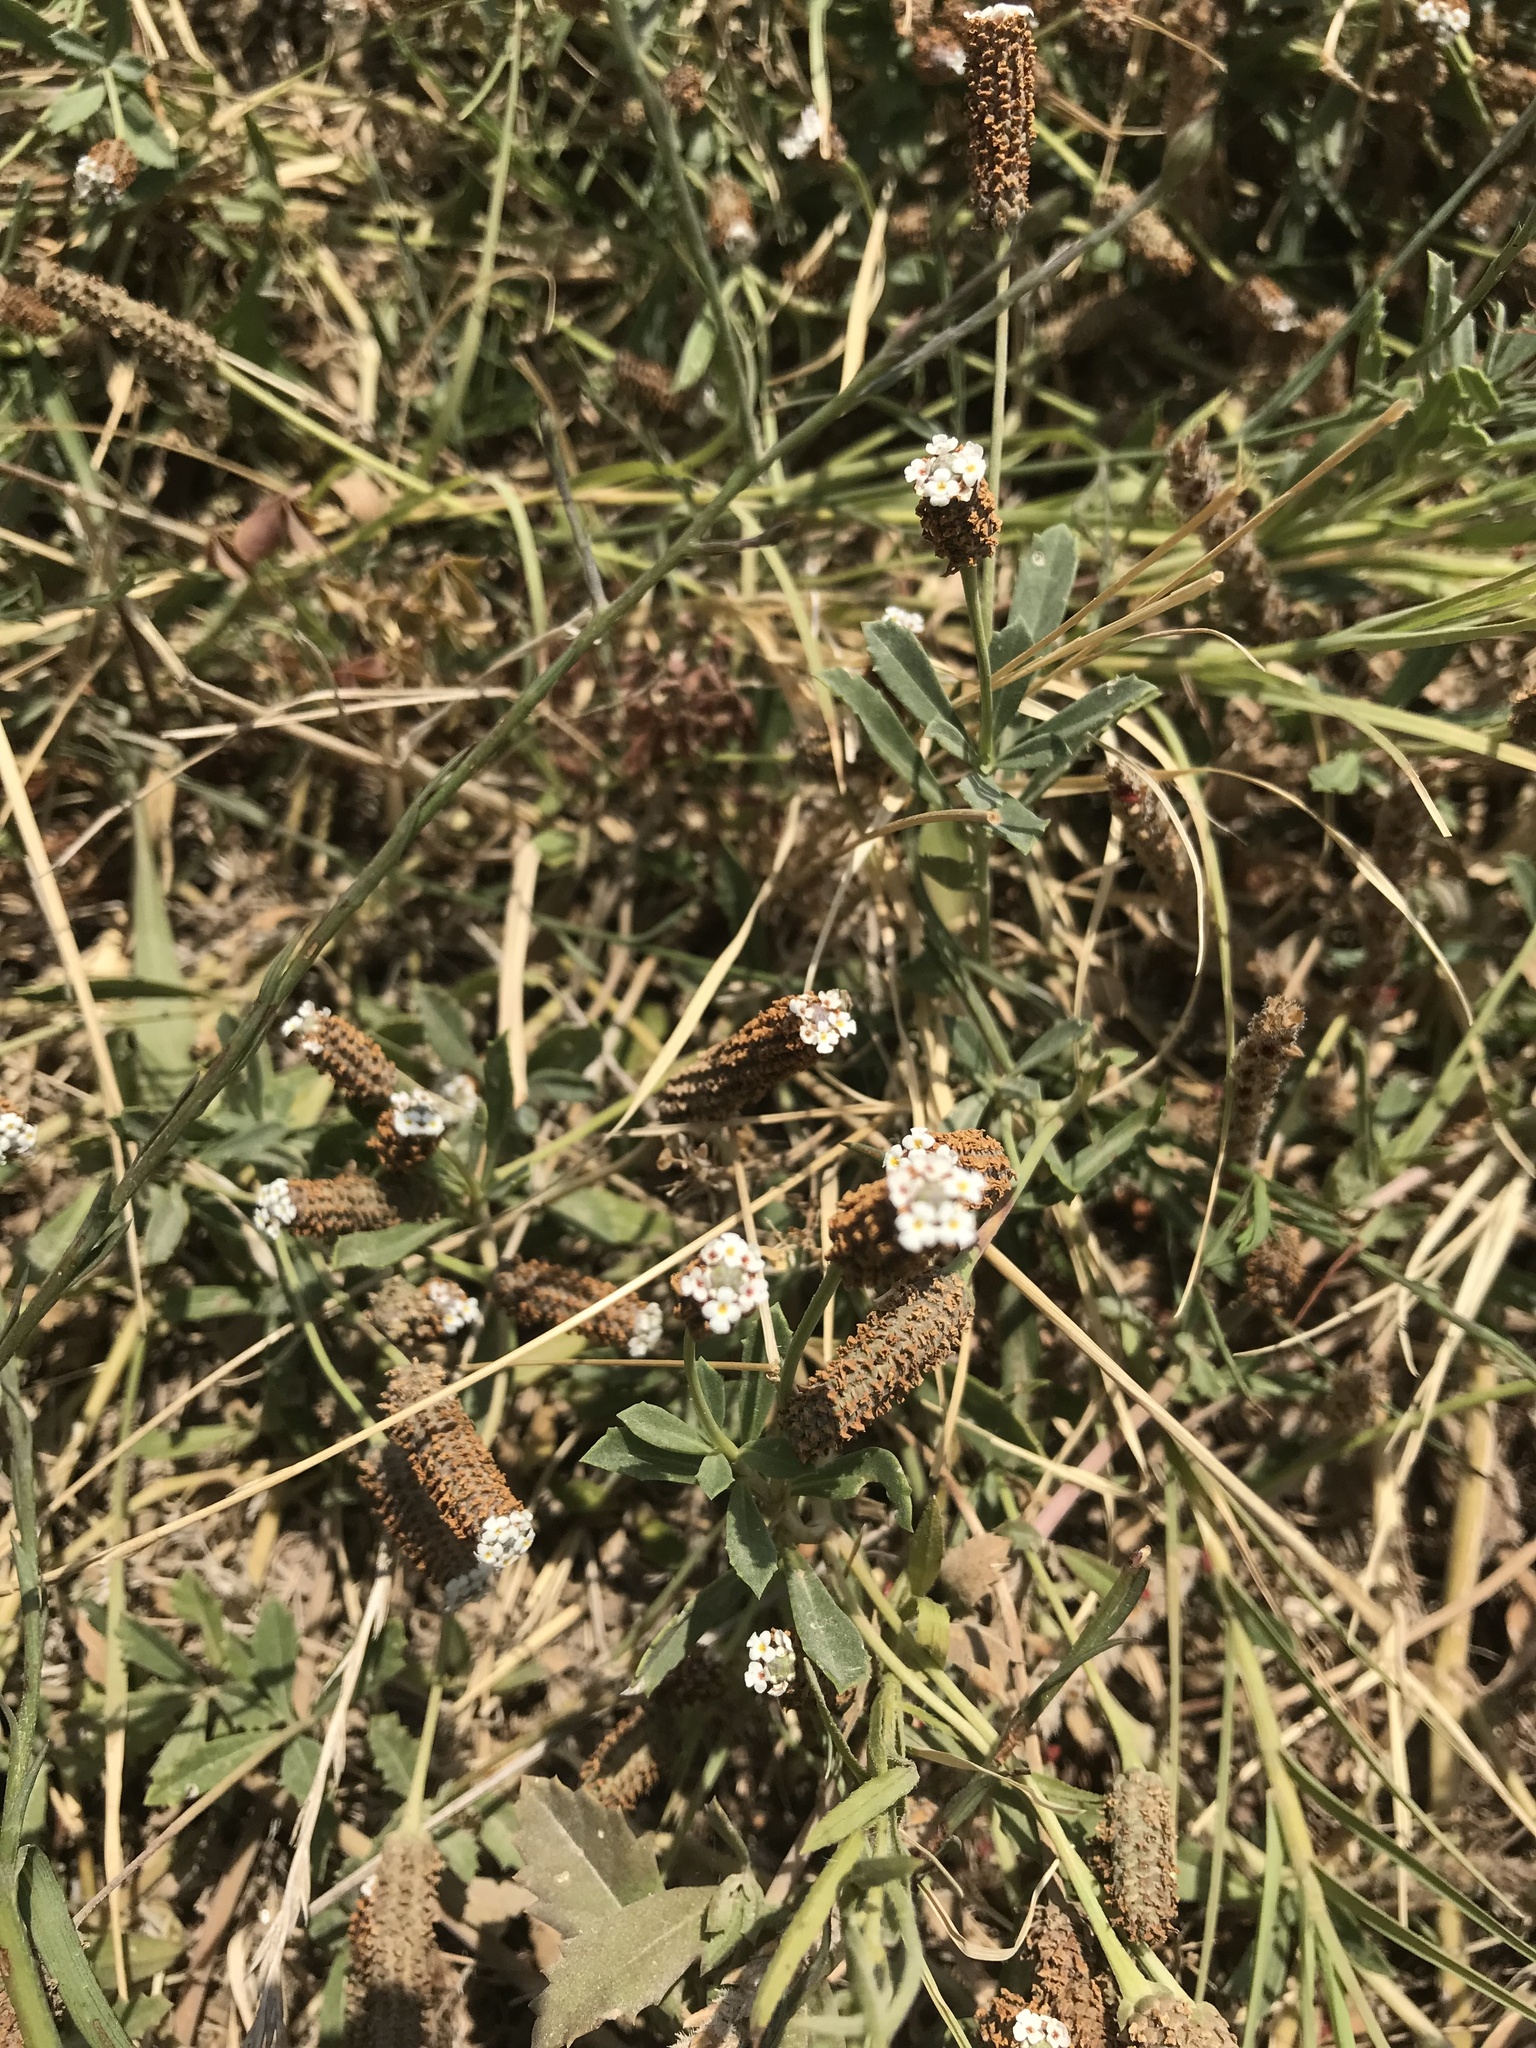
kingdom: Plantae
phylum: Tracheophyta
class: Magnoliopsida
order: Lamiales
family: Verbenaceae
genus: Phyla
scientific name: Phyla nodiflora
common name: Frogfruit
